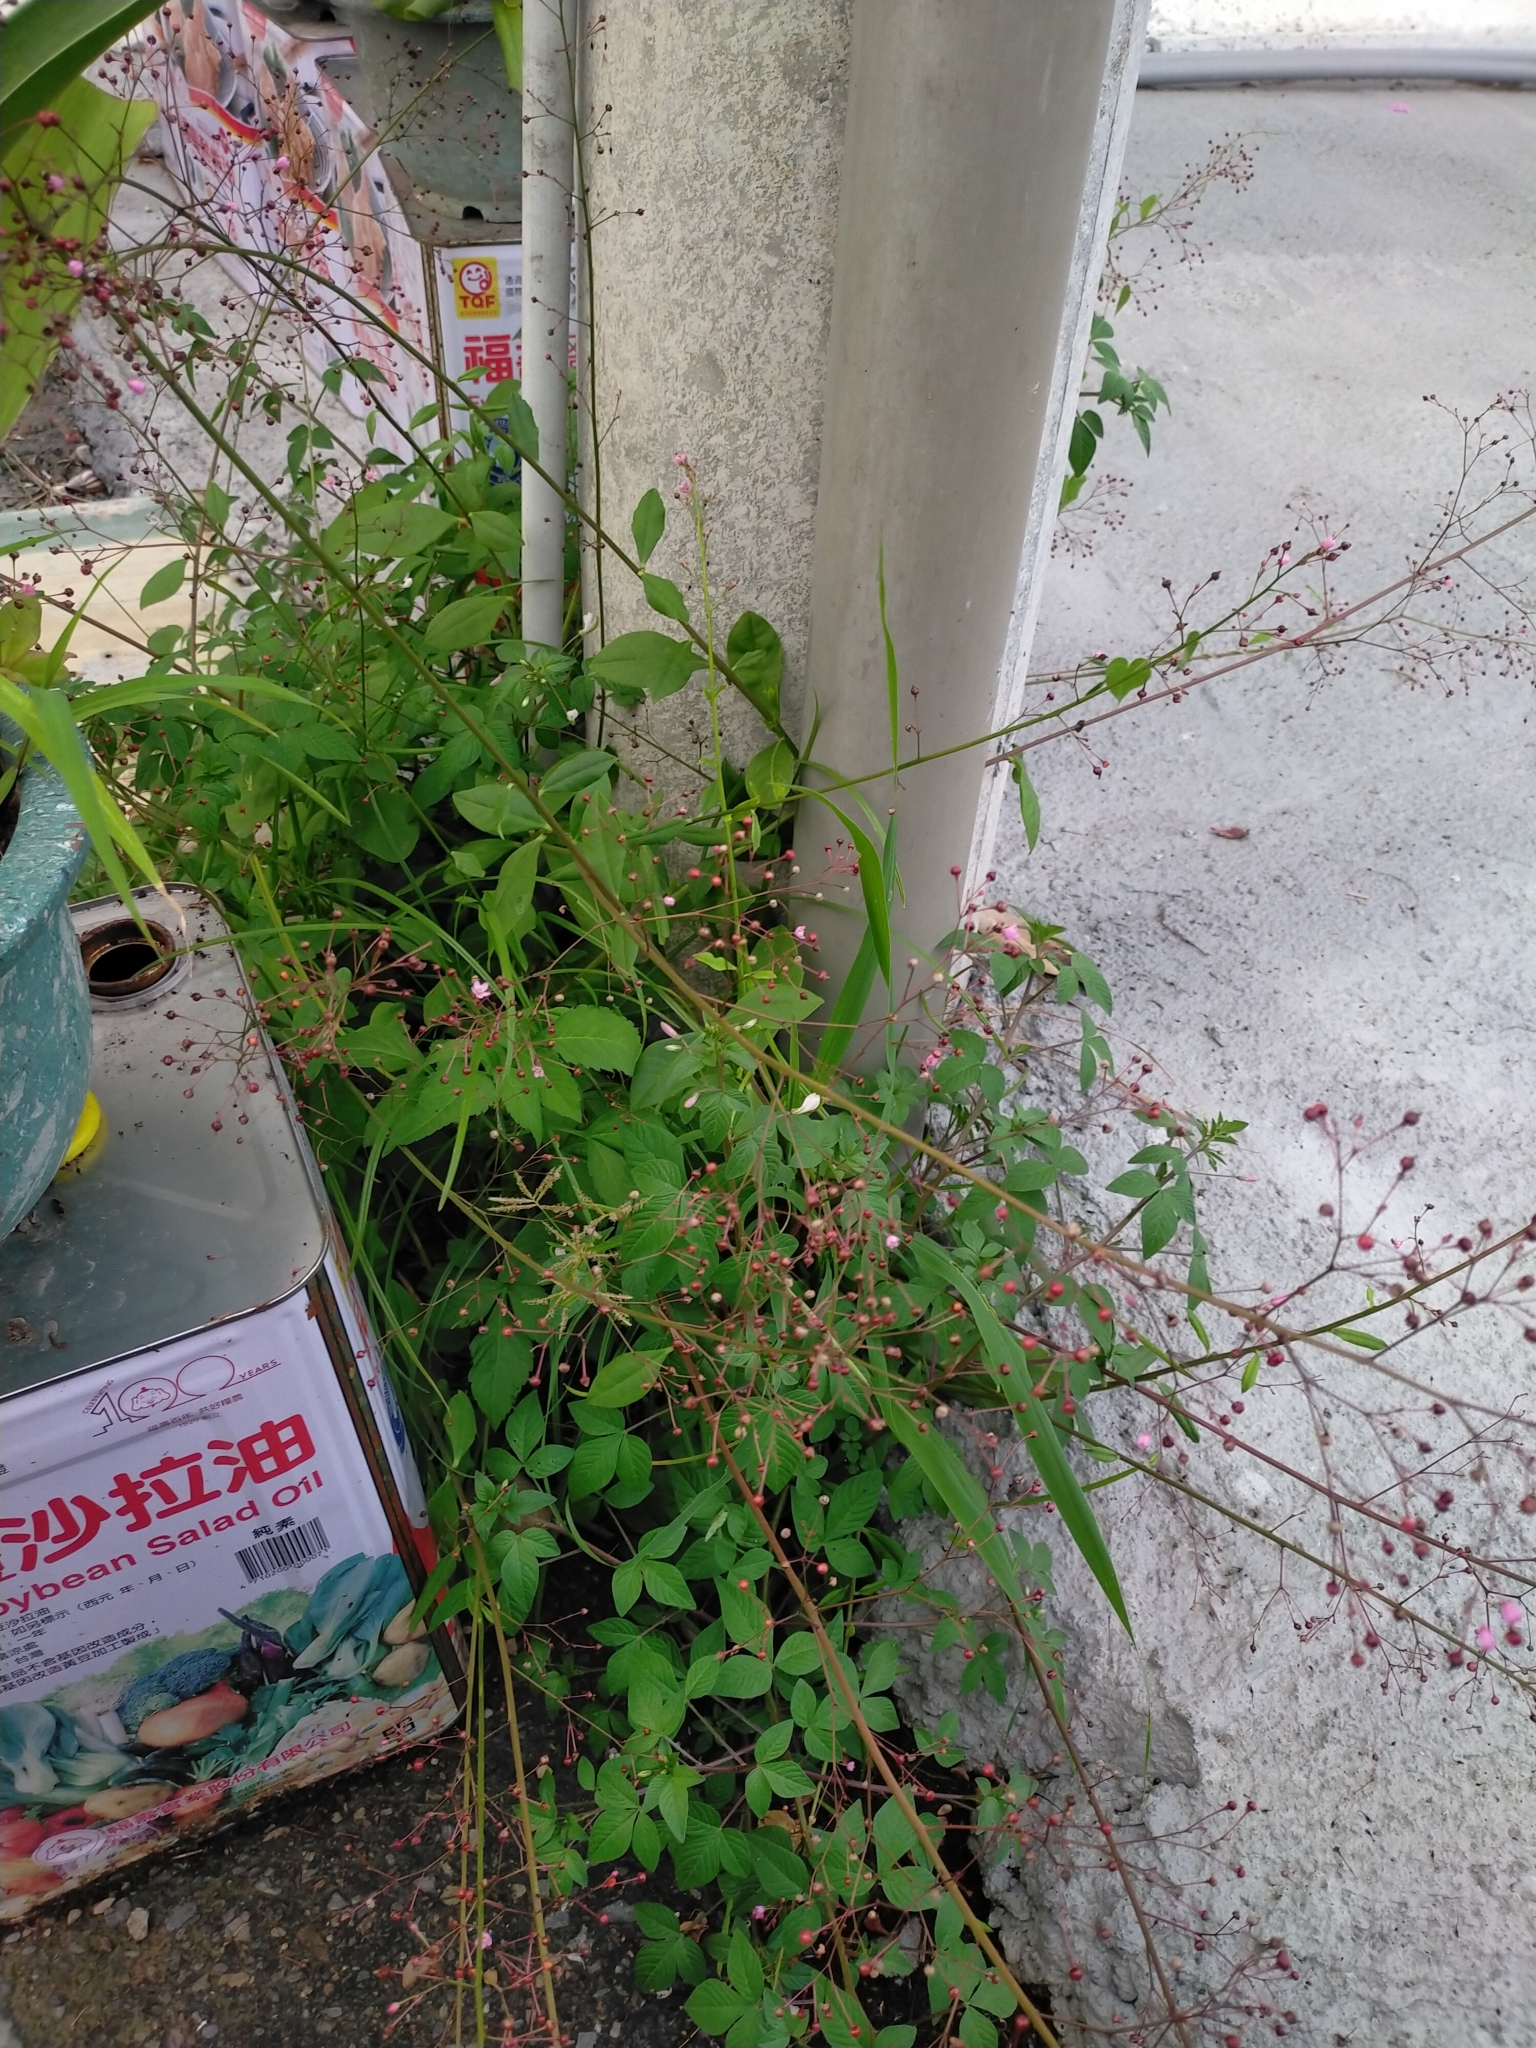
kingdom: Plantae
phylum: Tracheophyta
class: Magnoliopsida
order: Caryophyllales
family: Talinaceae
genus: Talinum
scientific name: Talinum paniculatum
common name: Jewels of opar
